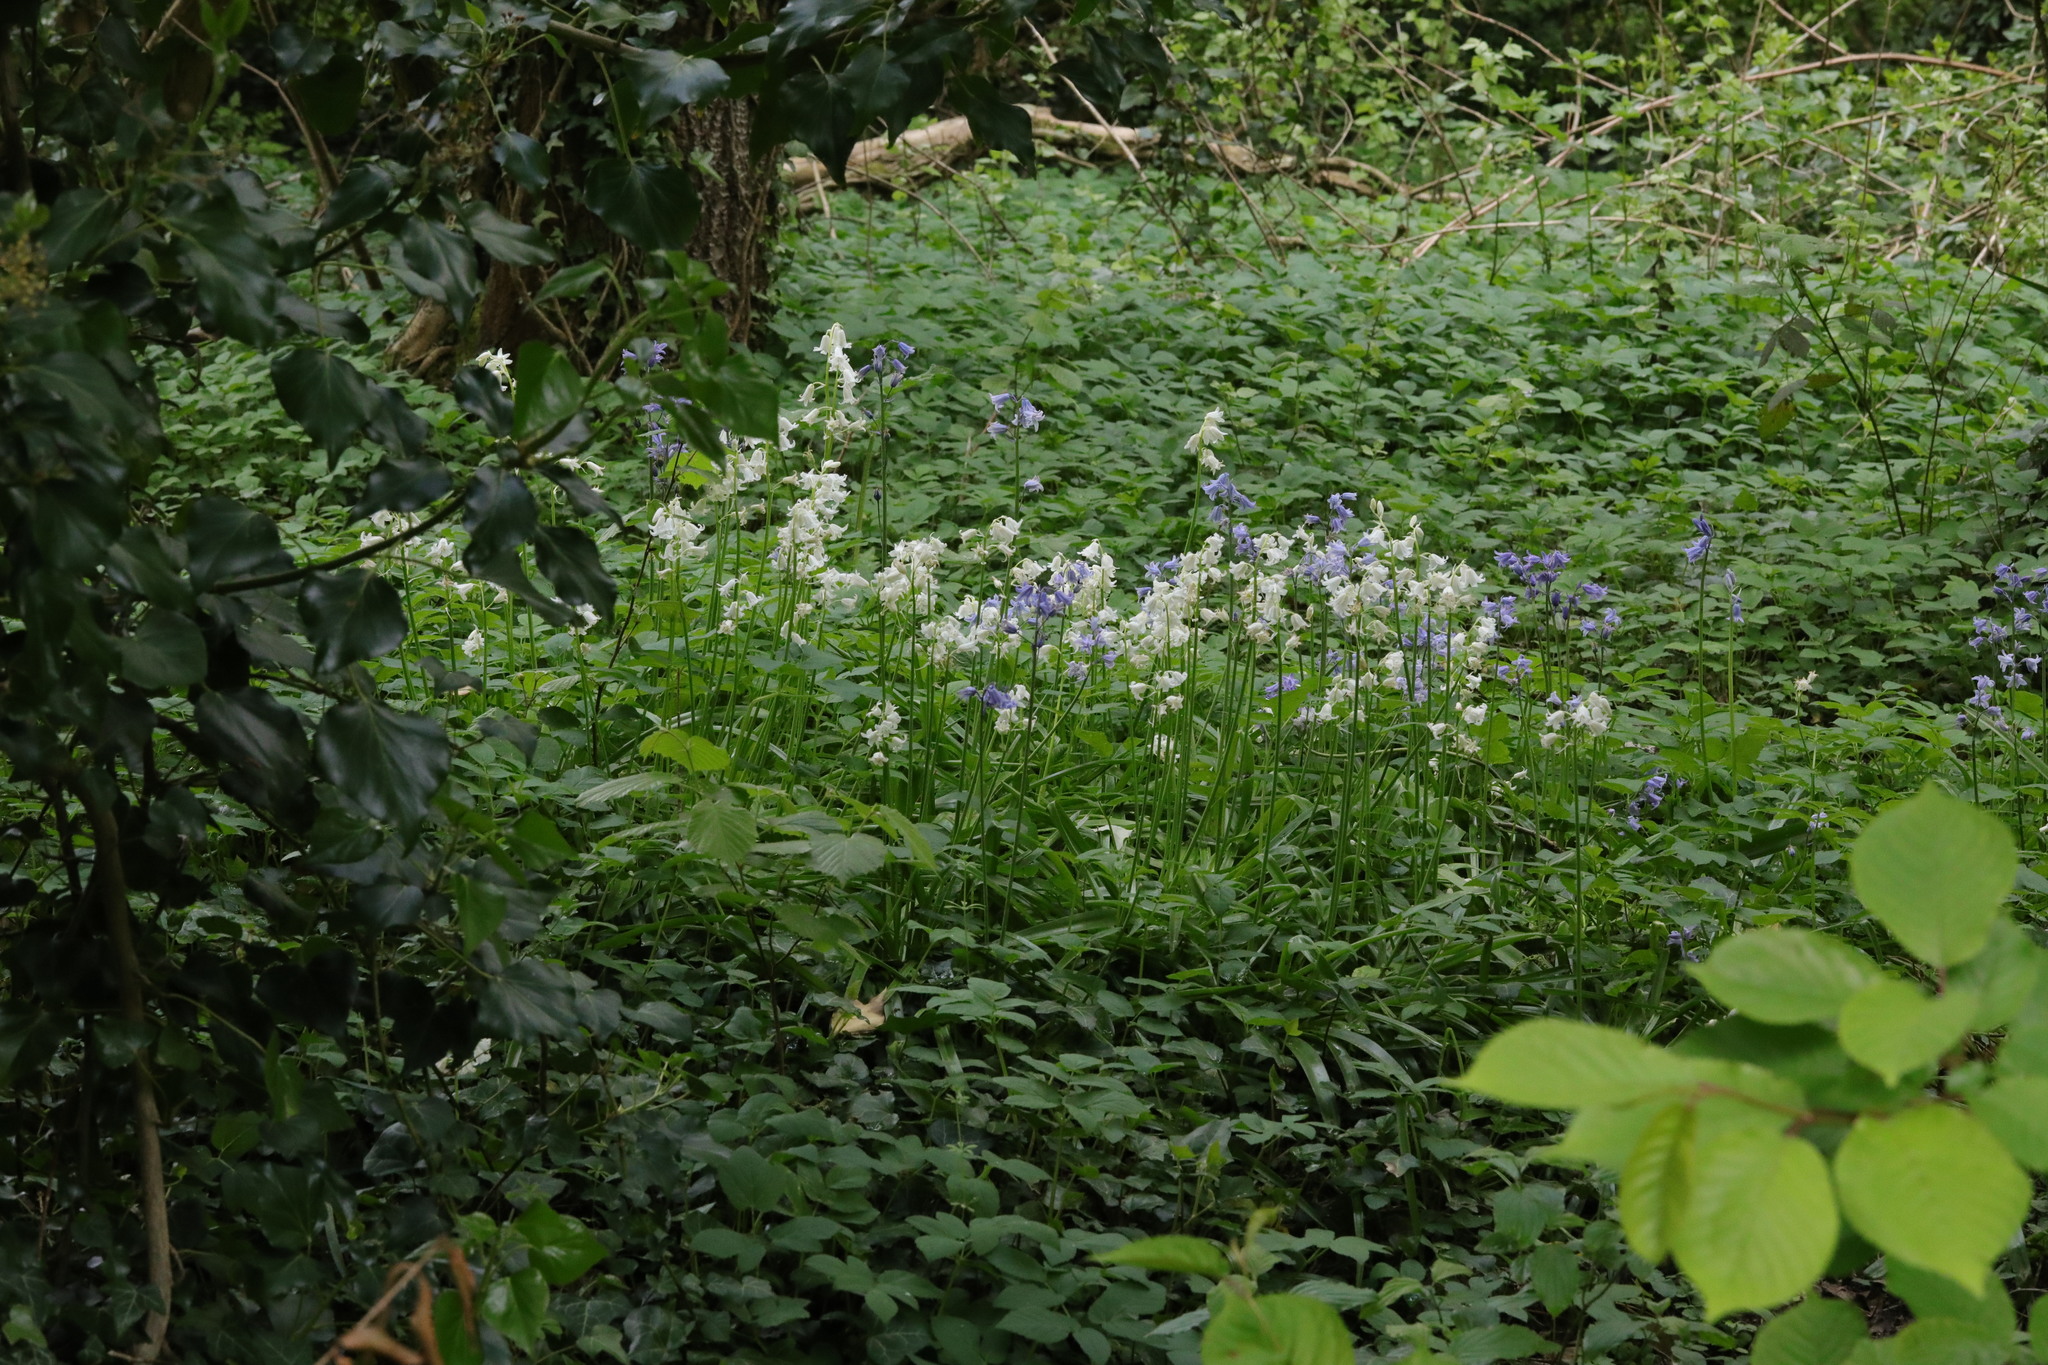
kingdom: Plantae
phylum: Tracheophyta
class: Liliopsida
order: Asparagales
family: Asparagaceae
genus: Hyacinthoides
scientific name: Hyacinthoides massartiana
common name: Hyacinthoides
